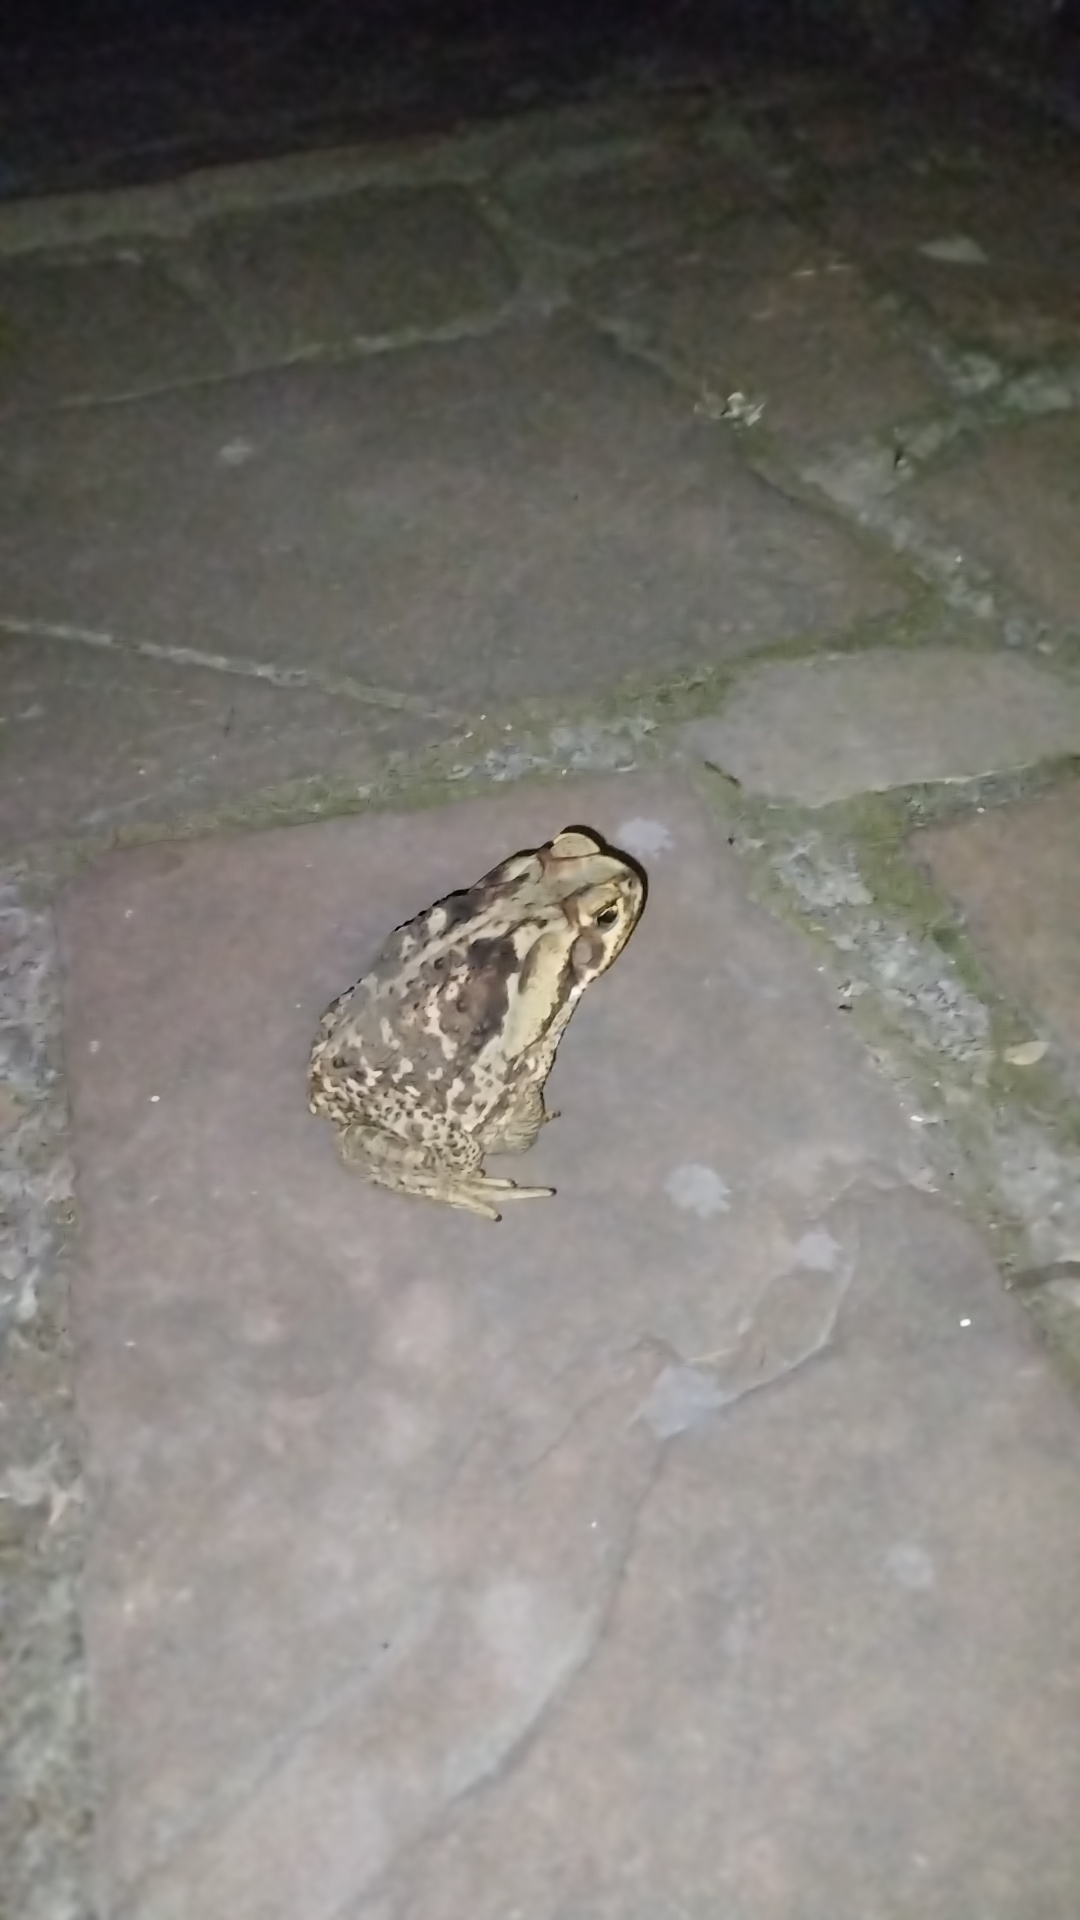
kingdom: Animalia
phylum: Chordata
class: Amphibia
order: Anura
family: Bufonidae
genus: Rhinella
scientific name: Rhinella diptycha
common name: Cope's toad
